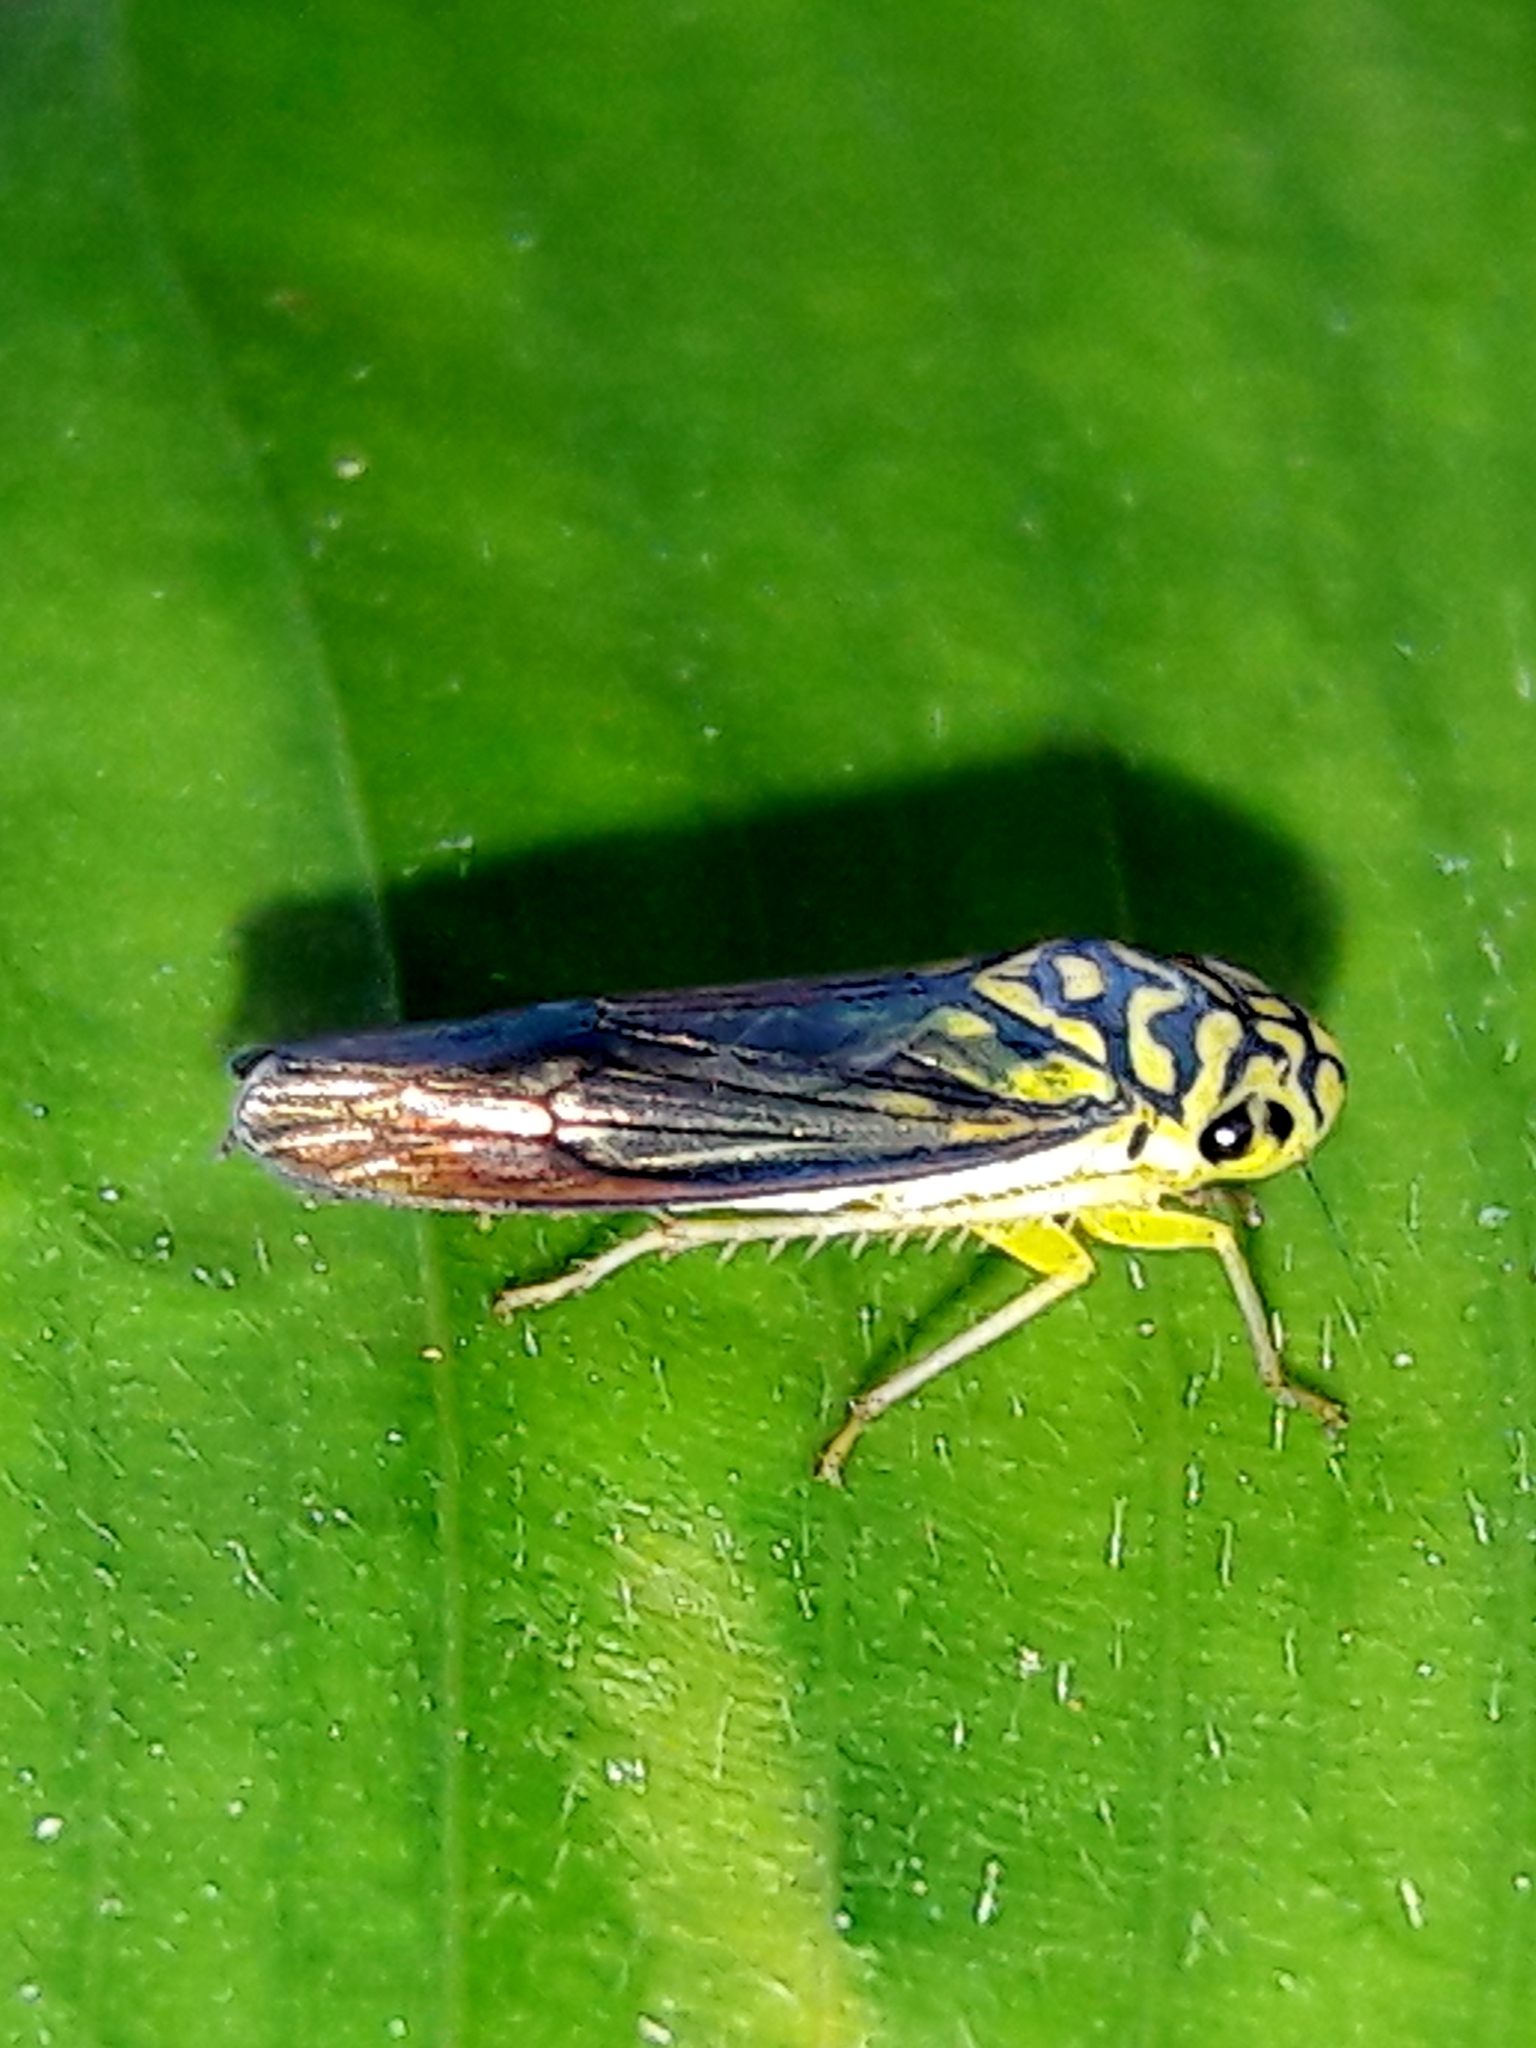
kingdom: Animalia
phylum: Arthropoda
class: Insecta
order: Hemiptera
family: Cicadellidae
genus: Dilobopterus
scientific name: Dilobopterus costalimai
